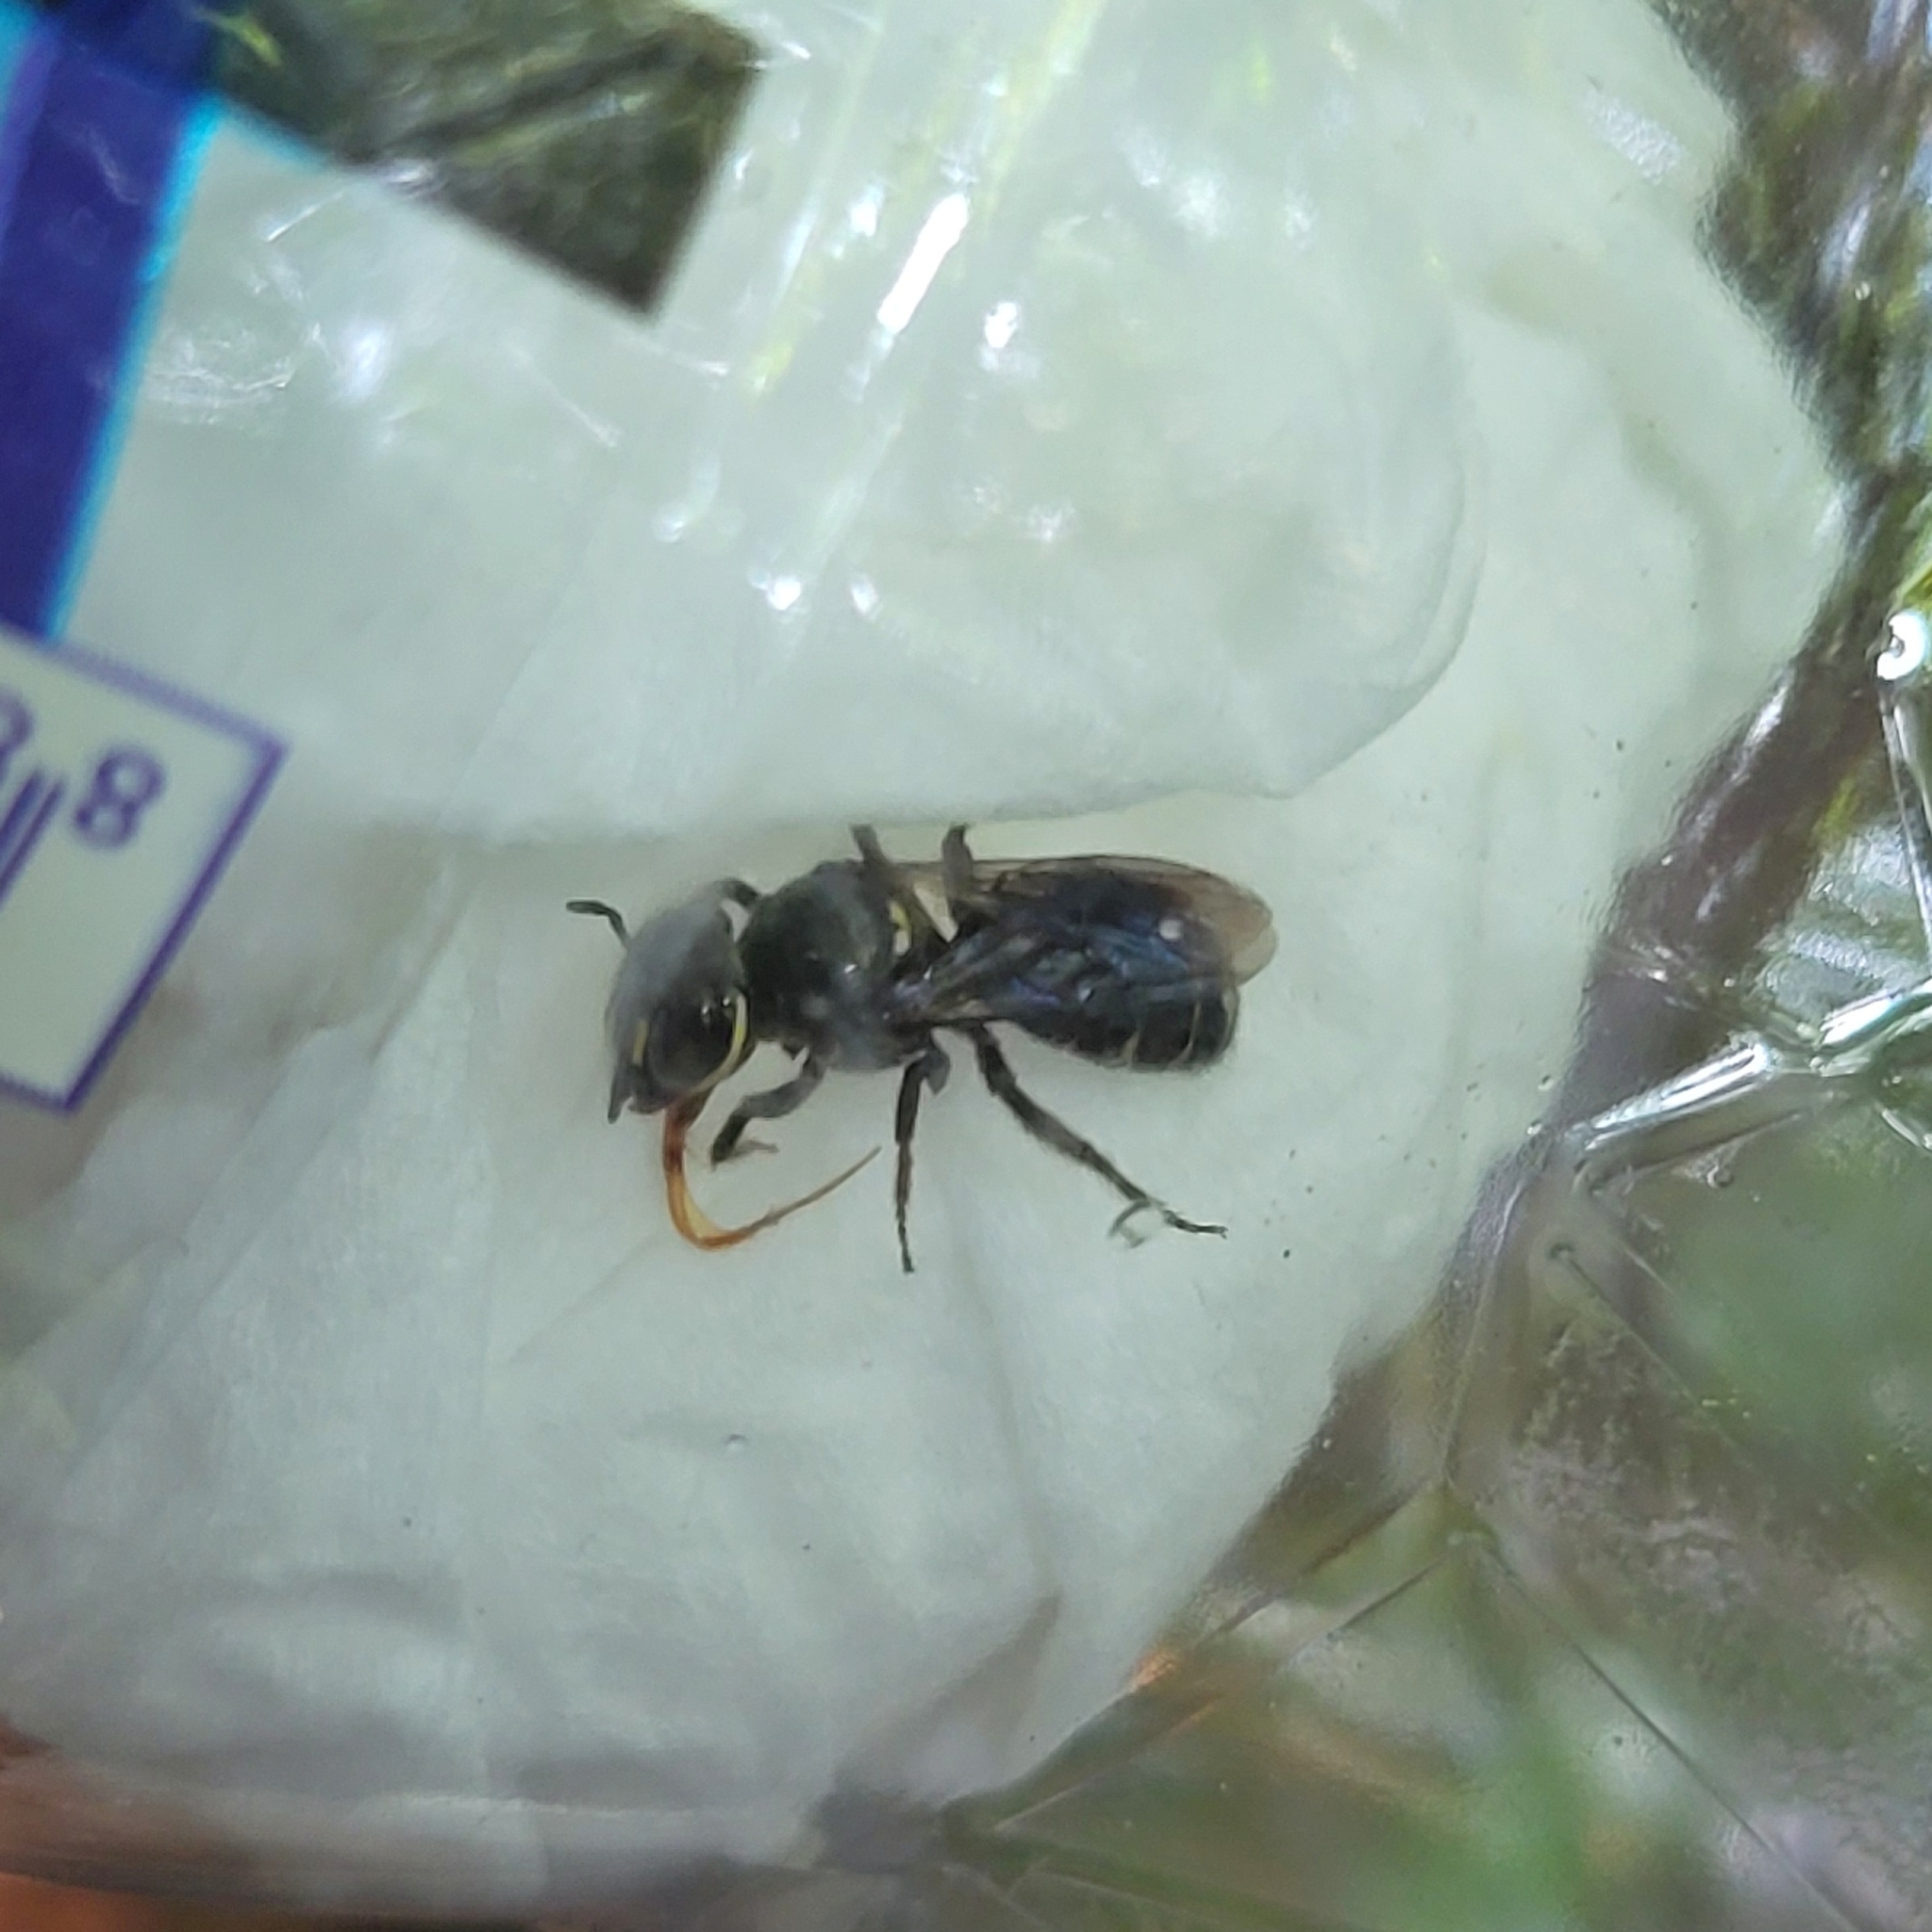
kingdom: Animalia
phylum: Arthropoda
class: Insecta
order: Hymenoptera
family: Apidae
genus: Ceratina
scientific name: Ceratina perforatrix
